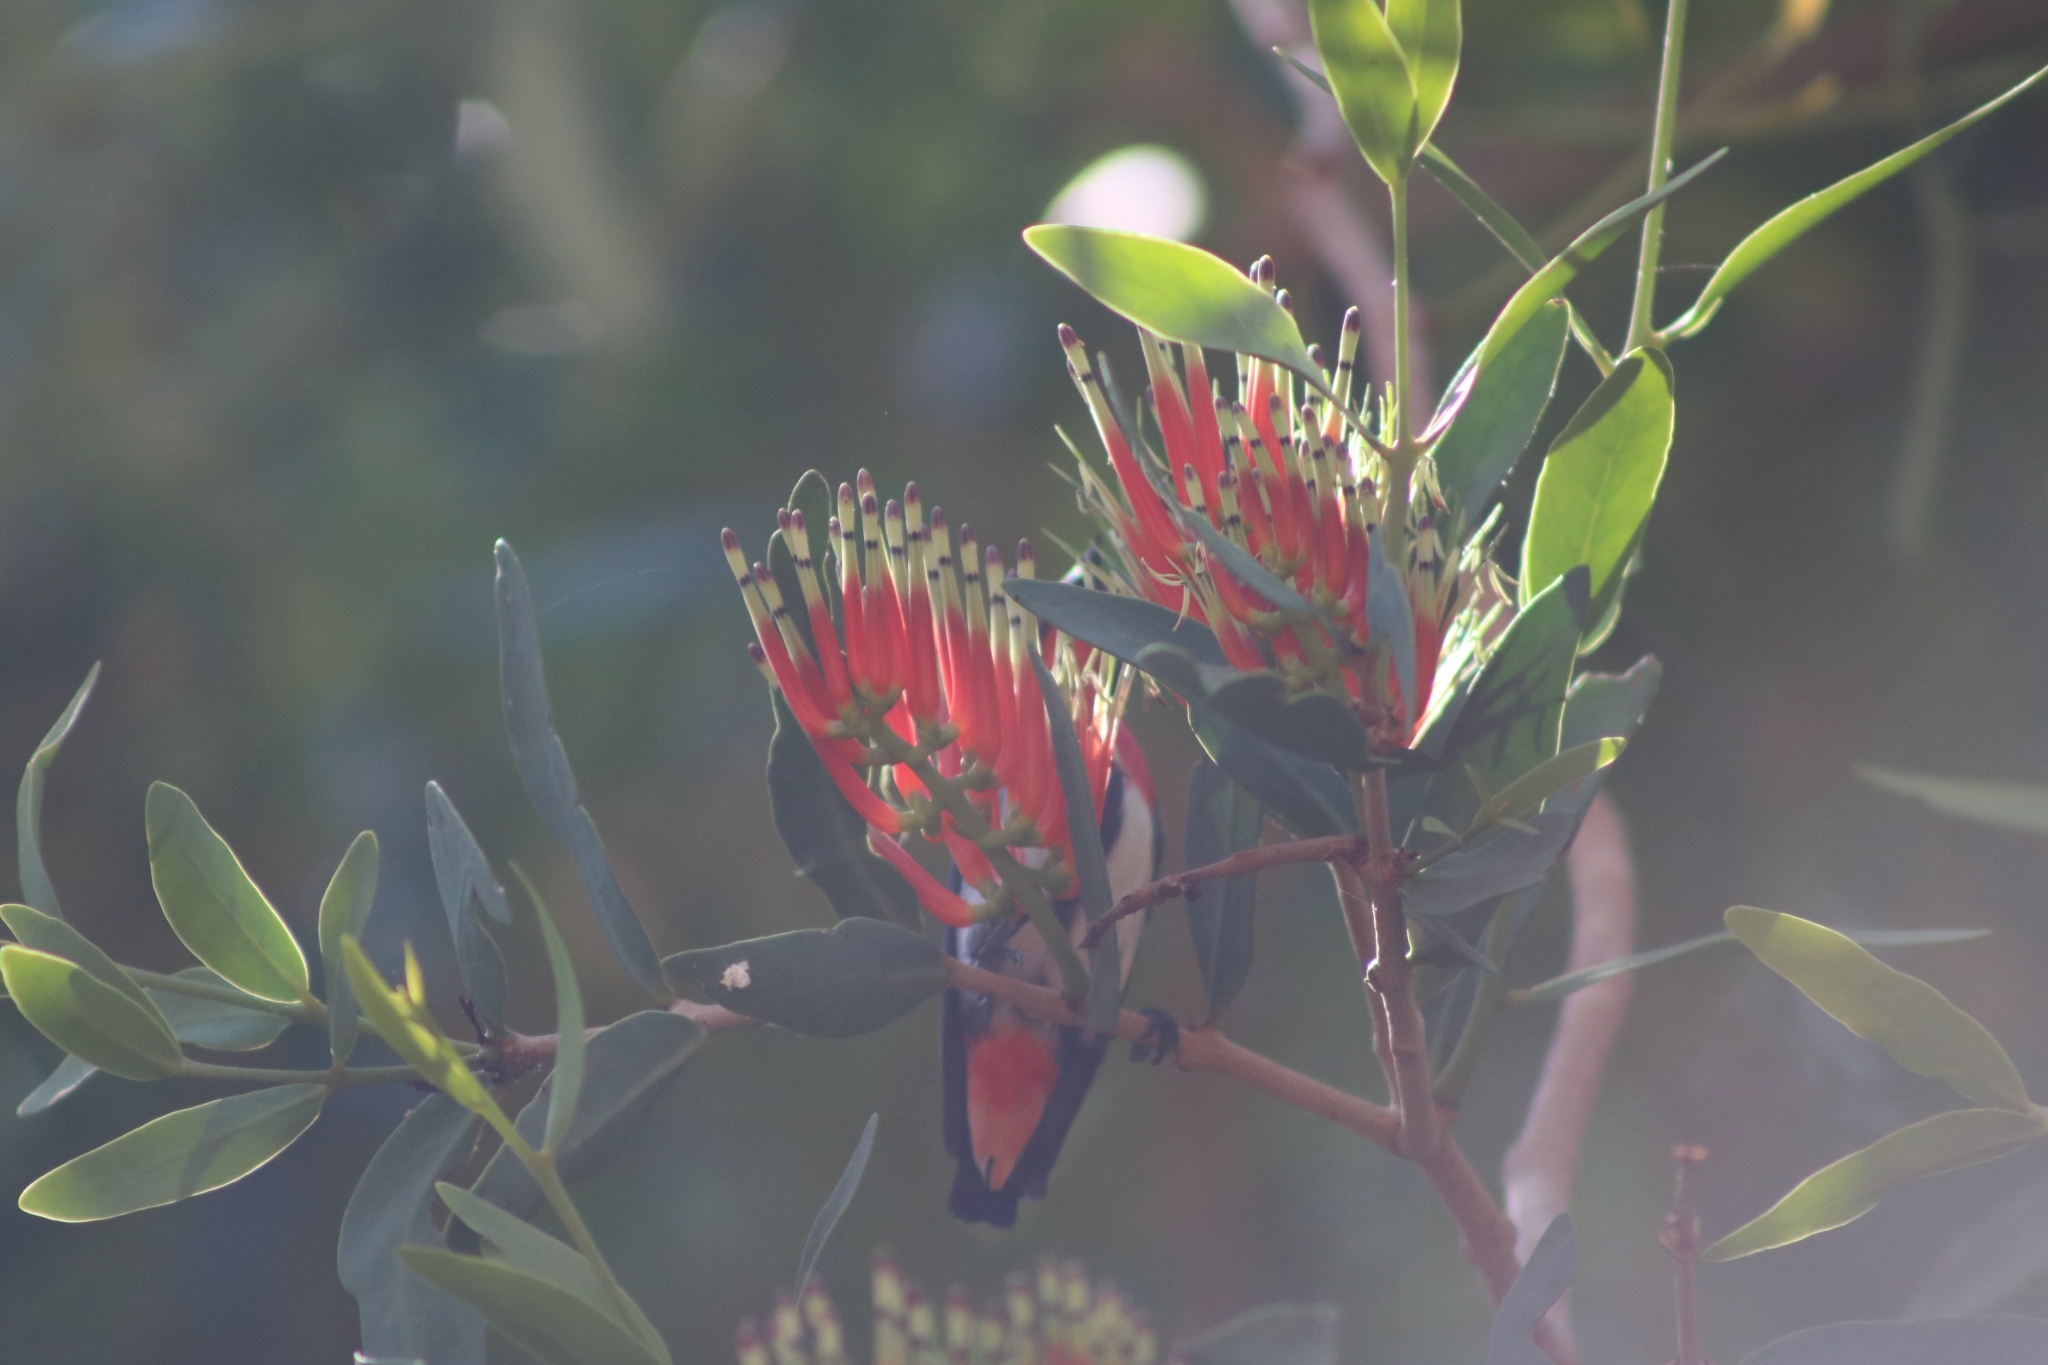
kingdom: Animalia
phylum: Chordata
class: Aves
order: Passeriformes
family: Dicaeidae
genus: Dicaeum
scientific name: Dicaeum hirundinaceum
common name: Mistletoebird
